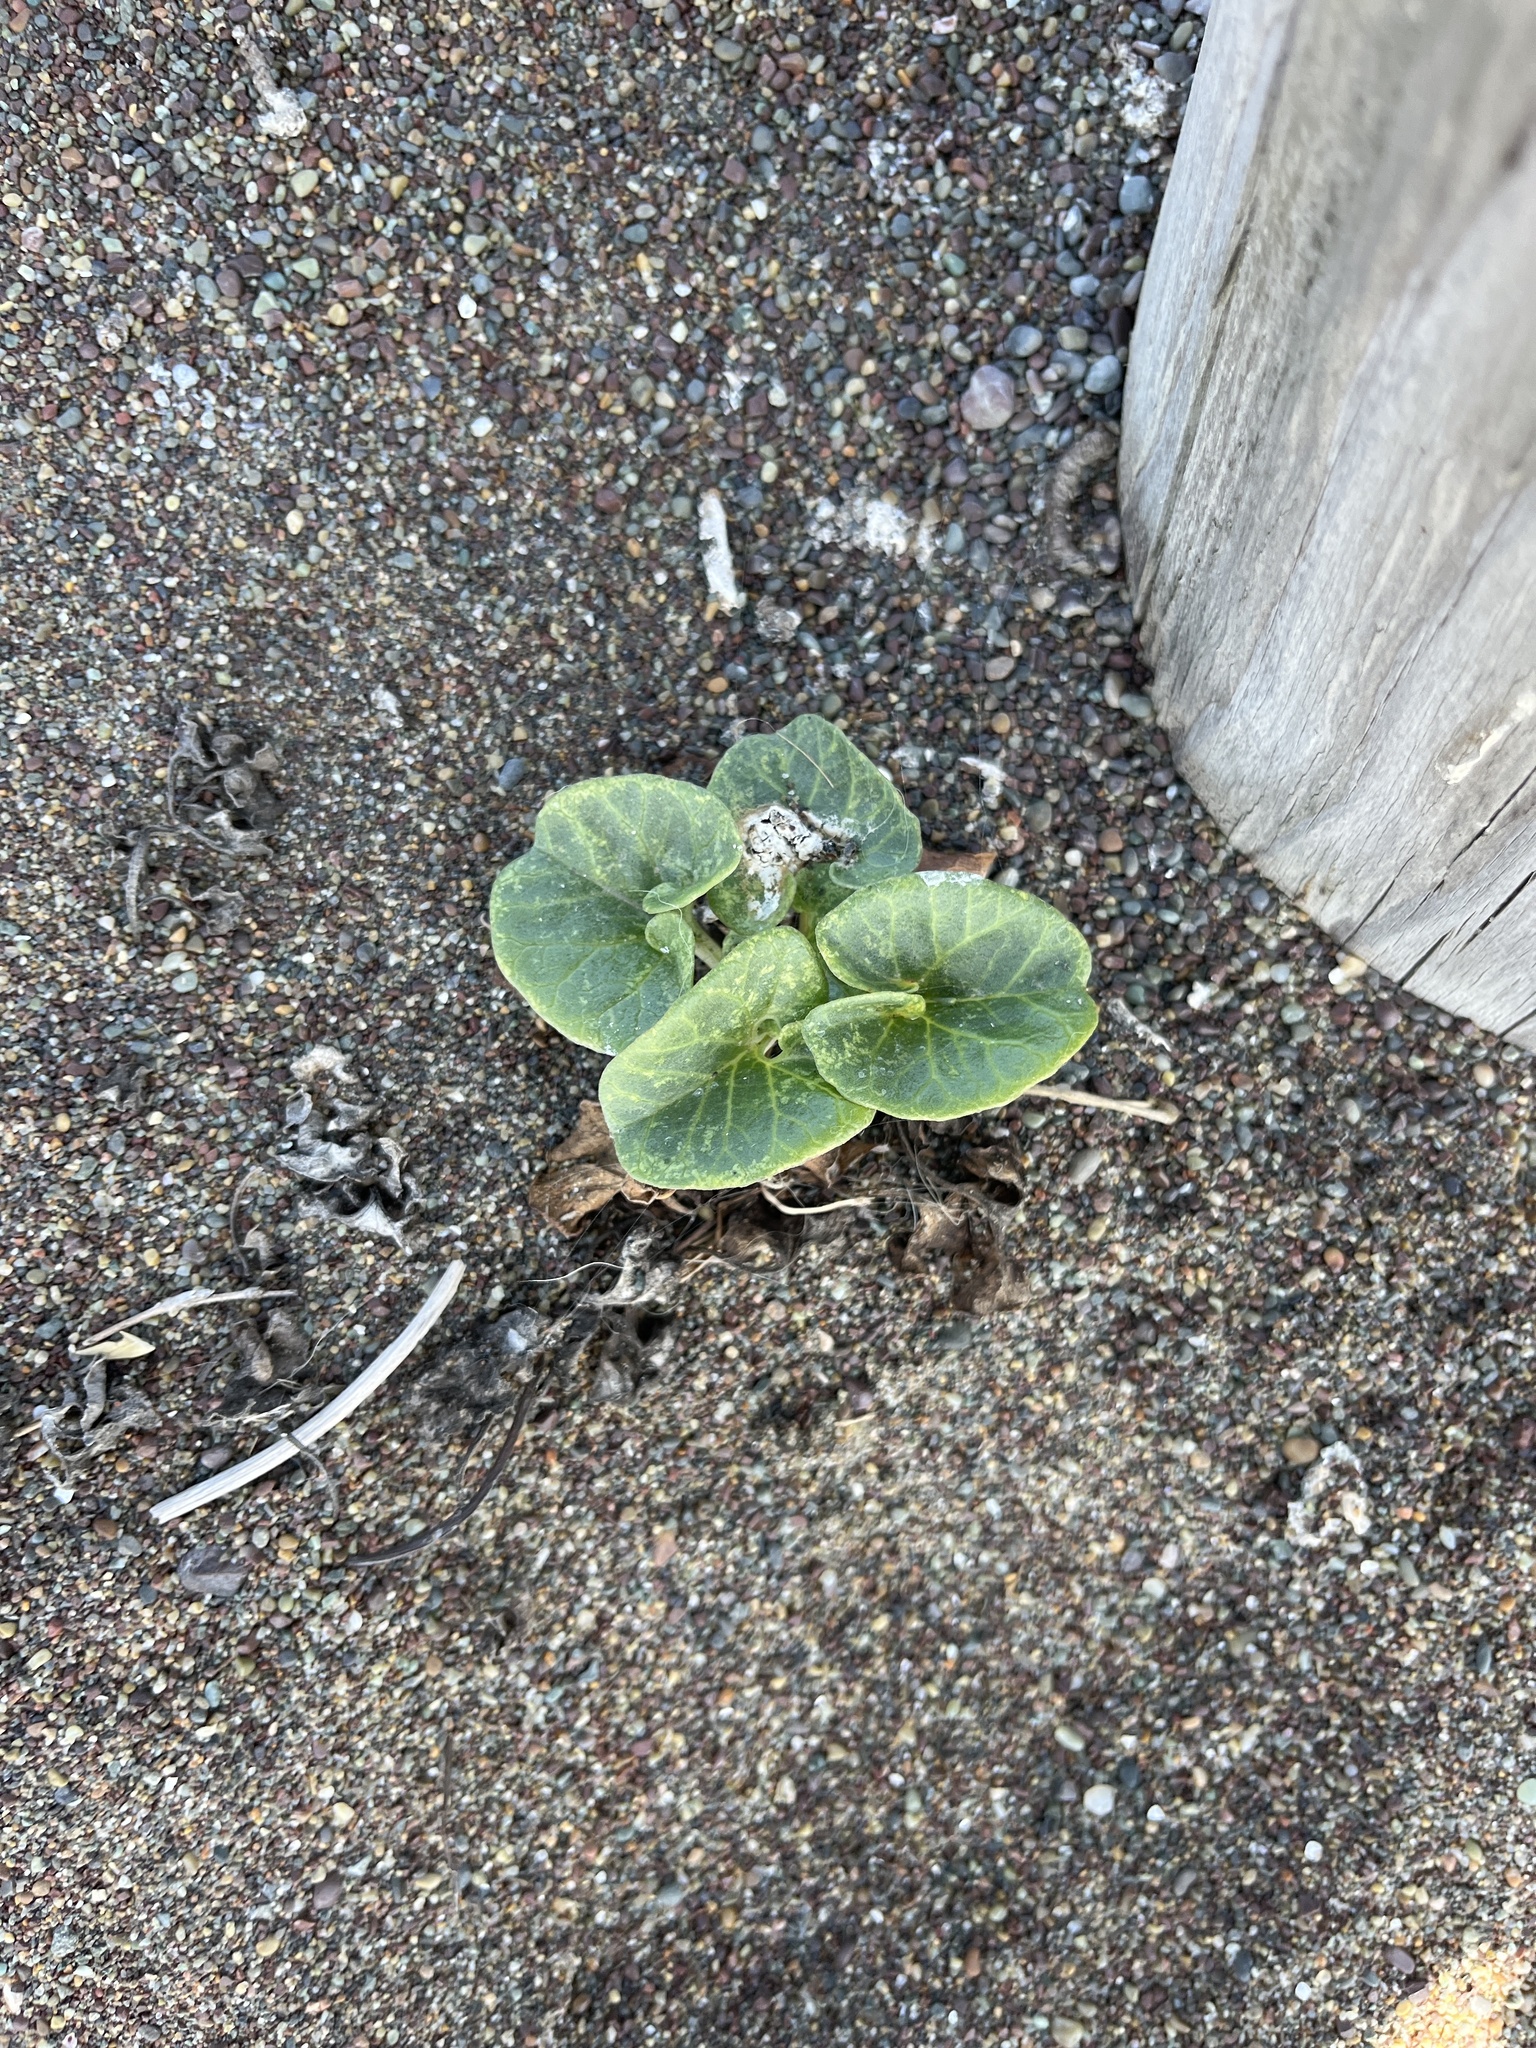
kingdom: Plantae
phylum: Tracheophyta
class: Magnoliopsida
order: Solanales
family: Convolvulaceae
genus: Calystegia
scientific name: Calystegia soldanella
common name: Sea bindweed
